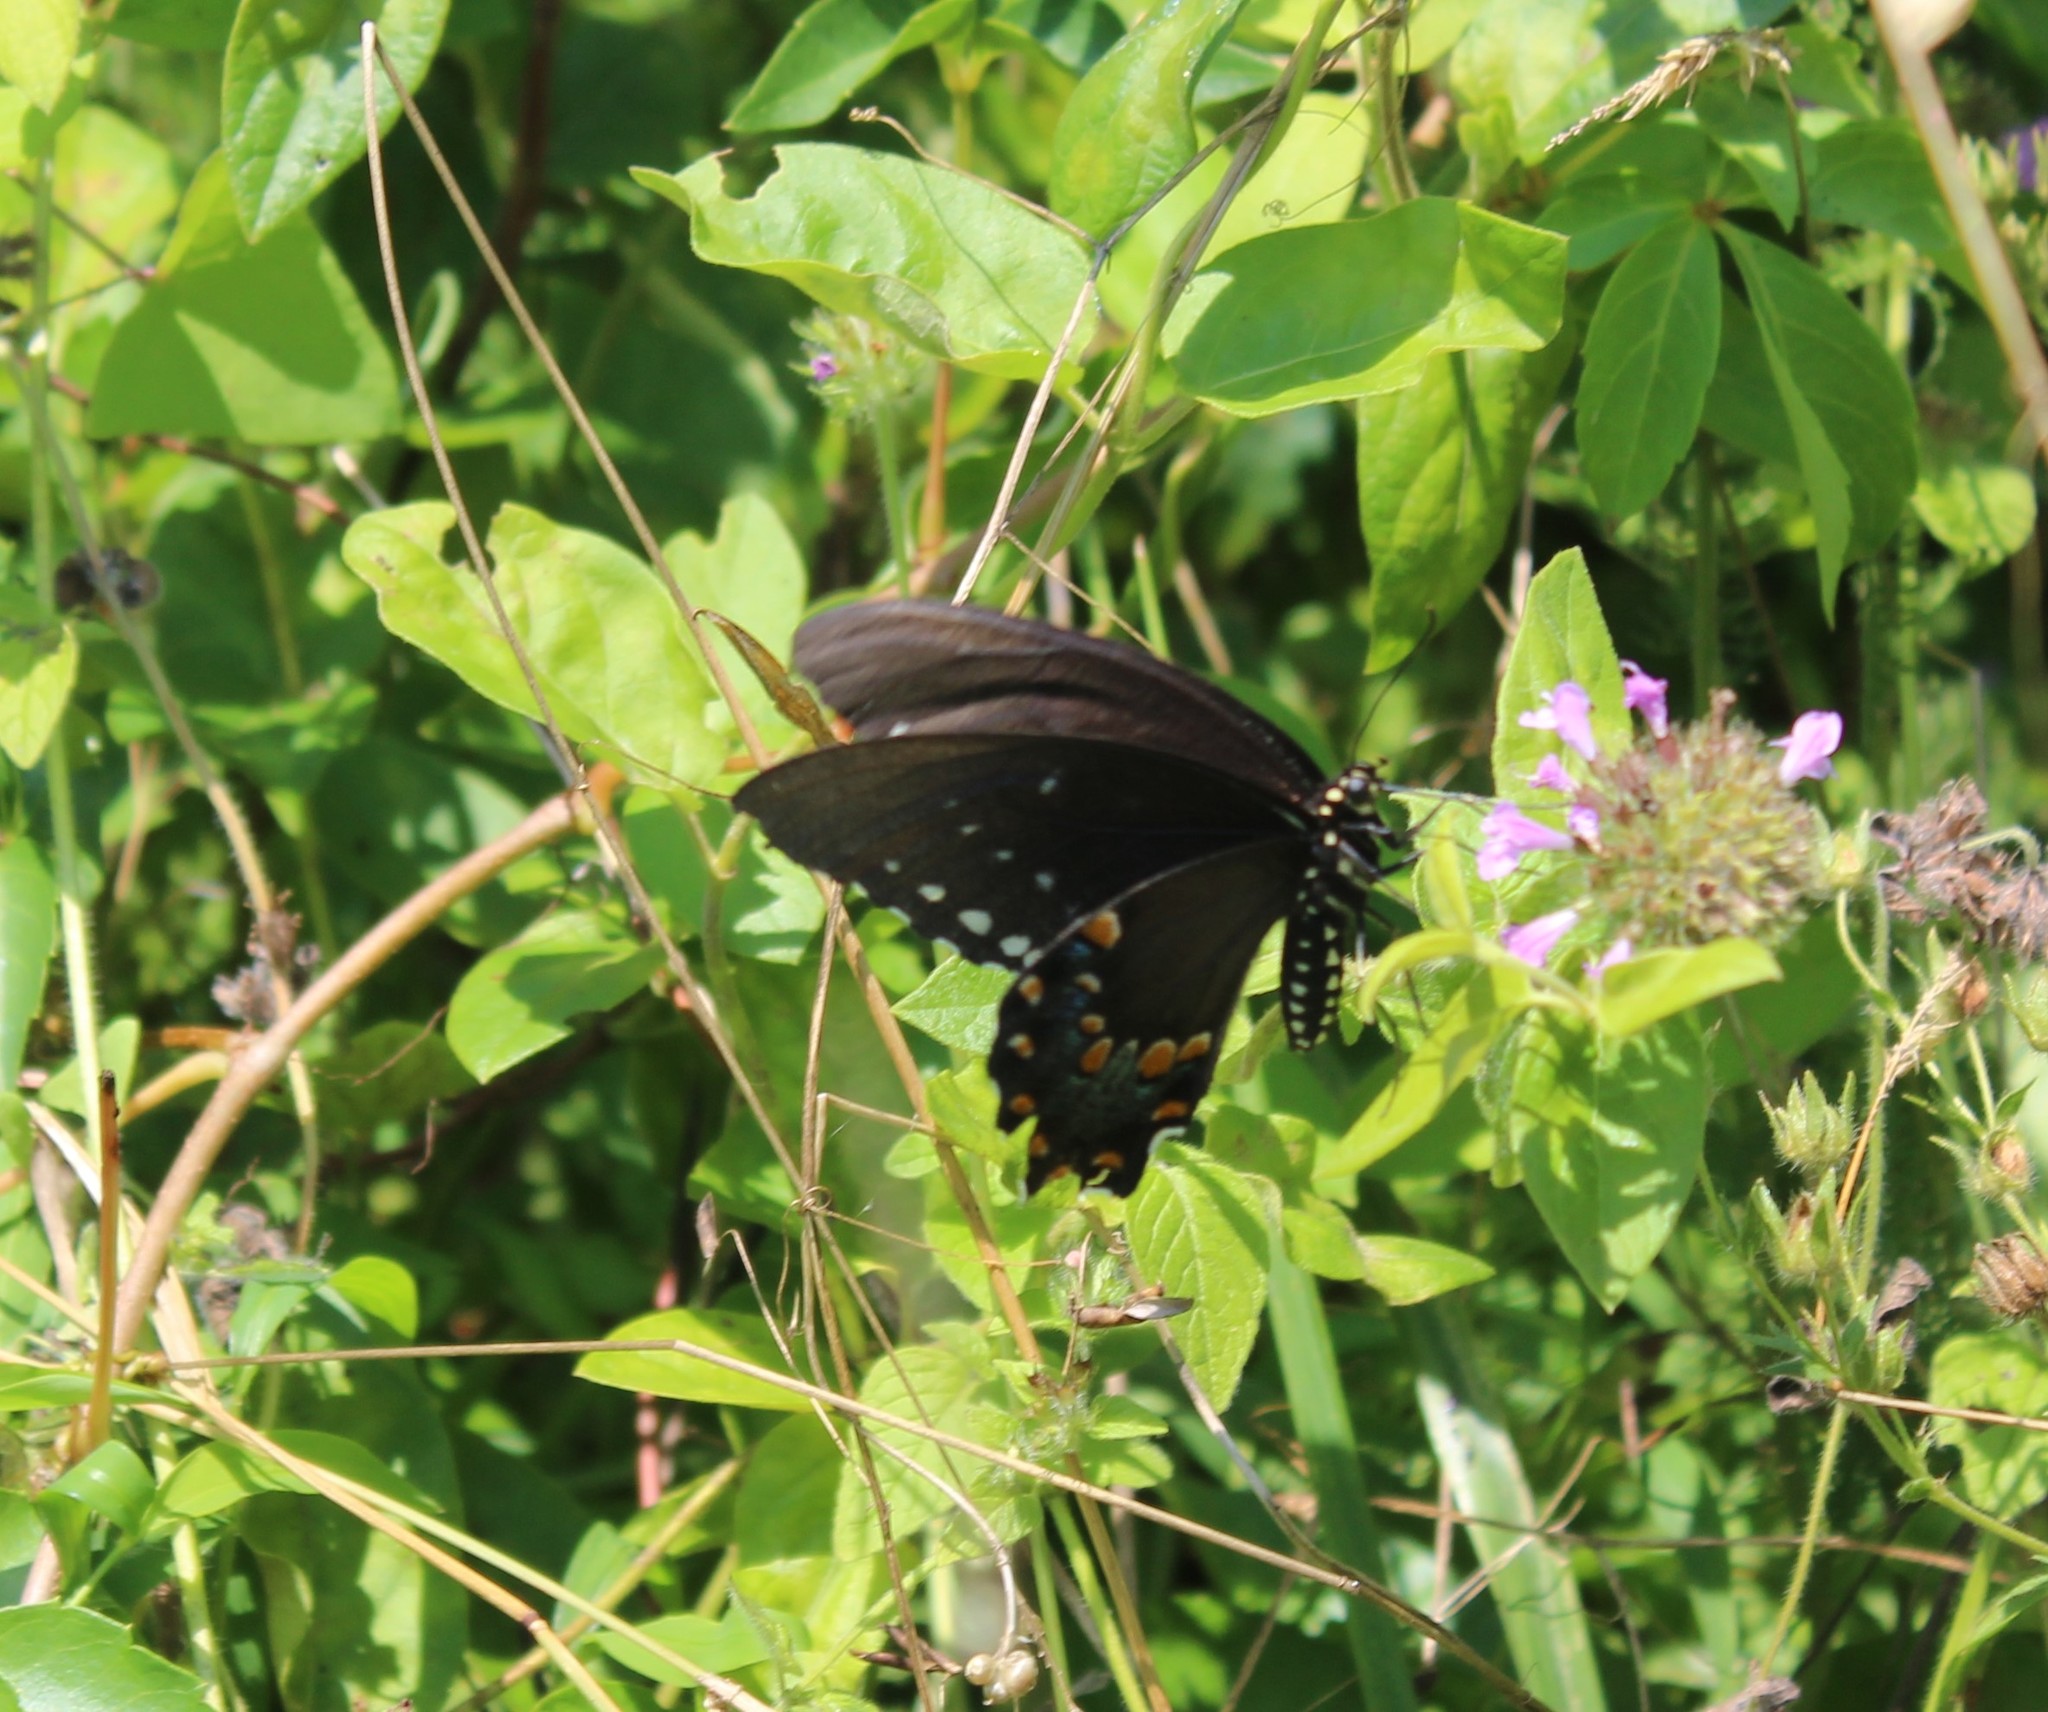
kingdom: Animalia
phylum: Arthropoda
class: Insecta
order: Lepidoptera
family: Papilionidae
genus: Papilio
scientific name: Papilio troilus
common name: Spicebush swallowtail
